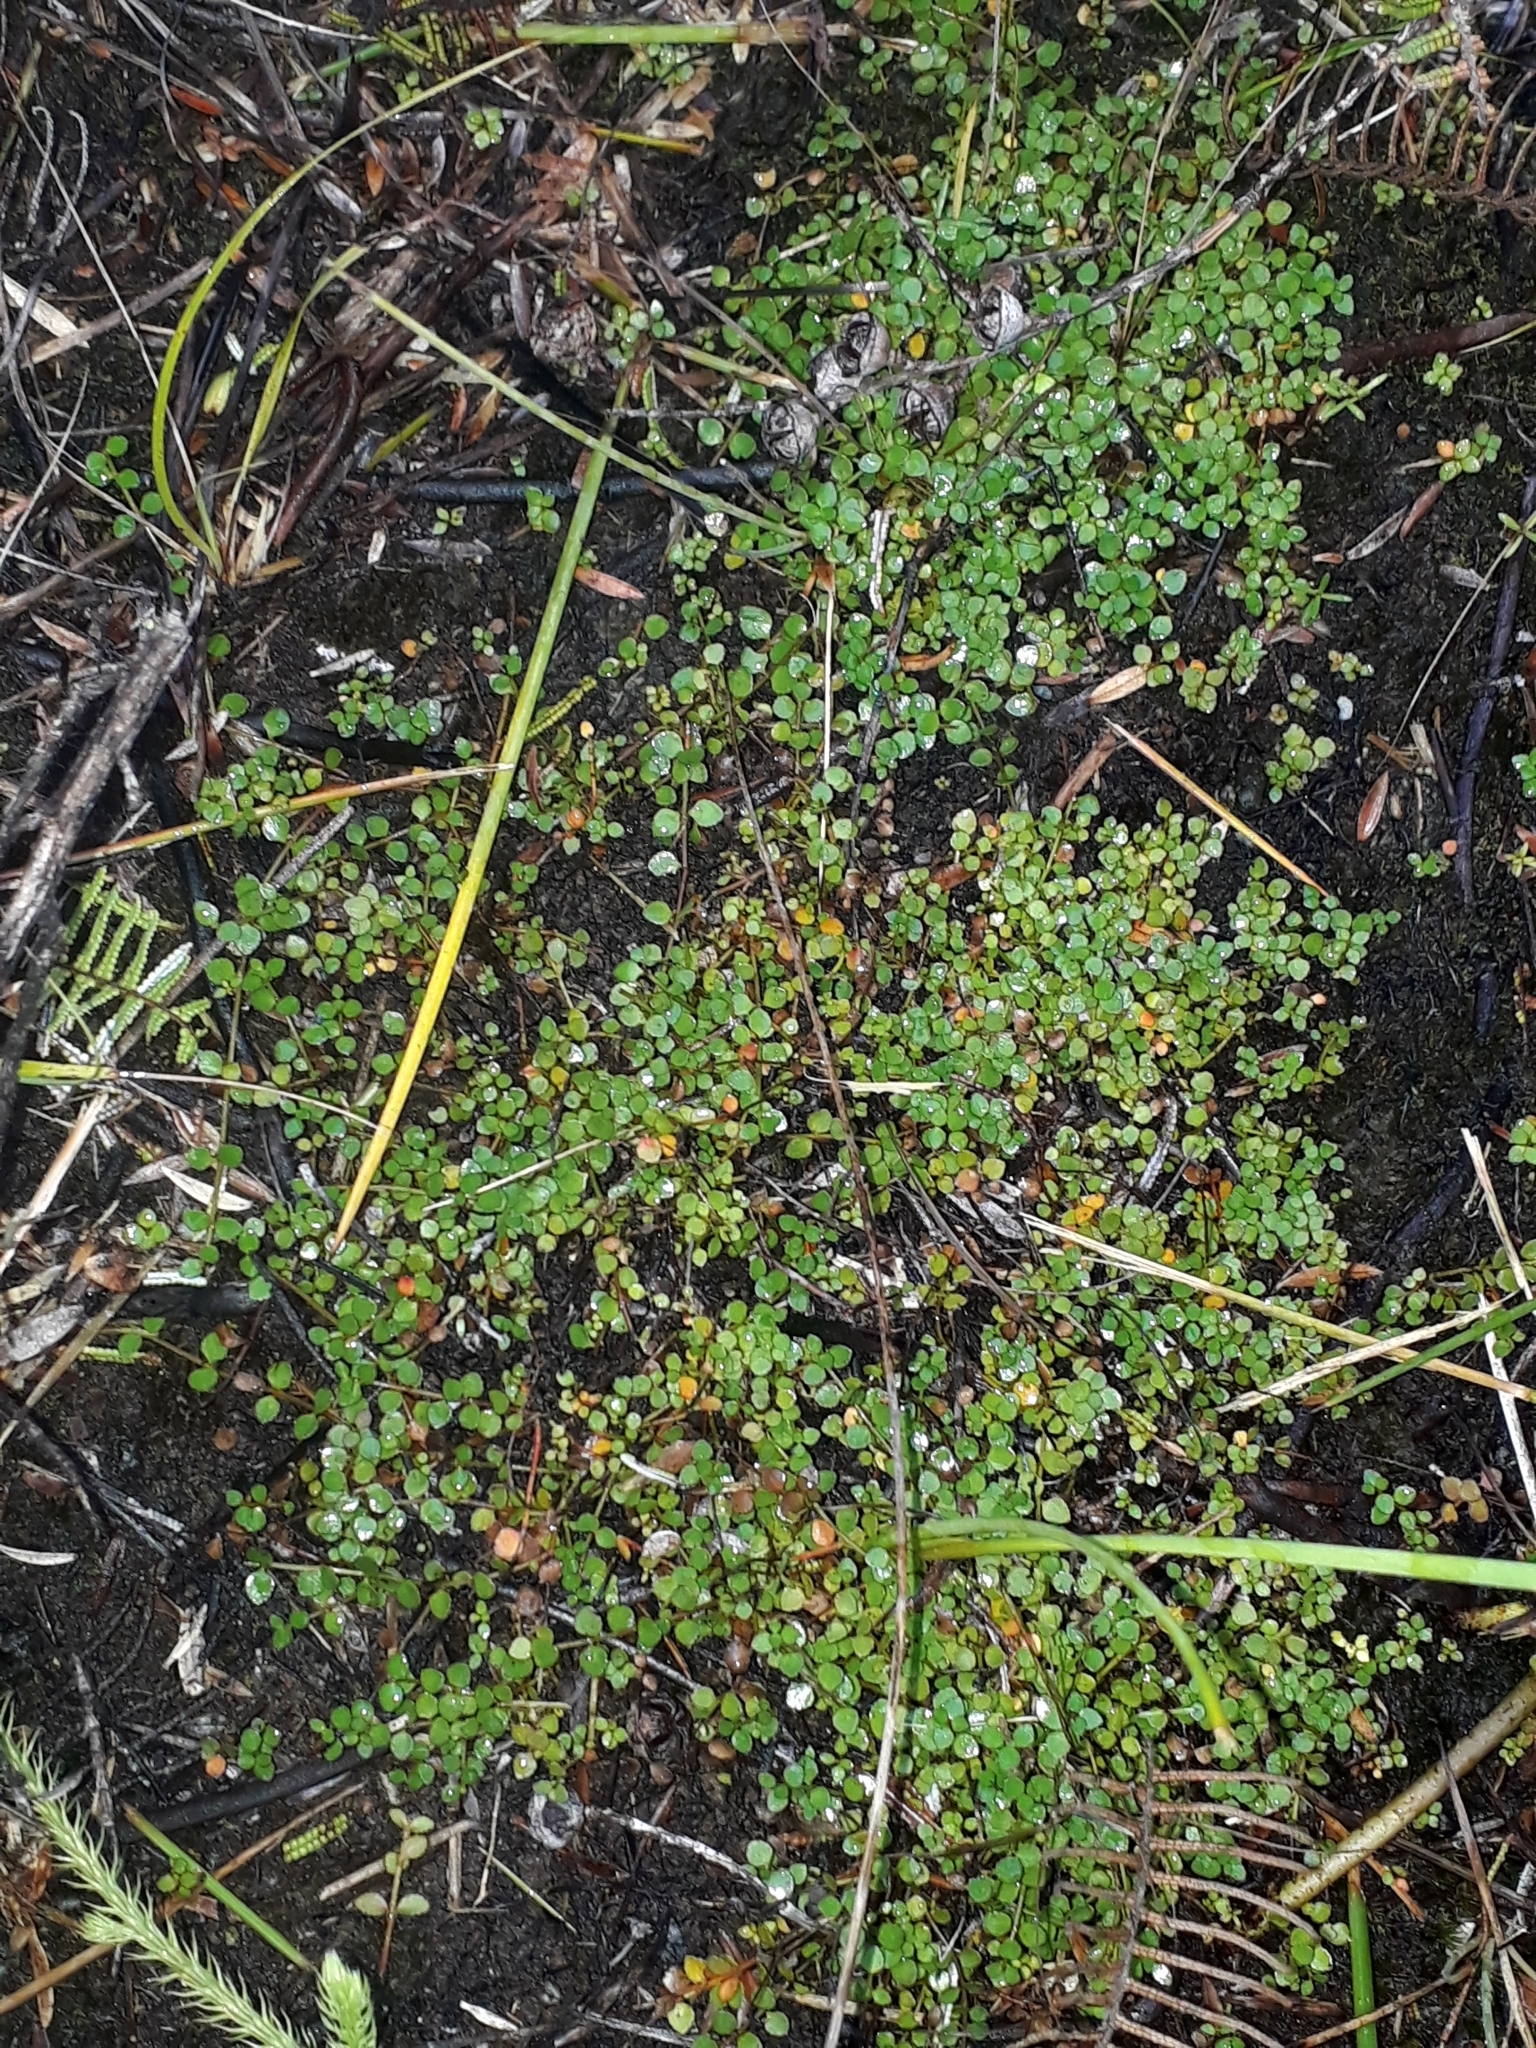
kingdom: Plantae
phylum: Tracheophyta
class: Magnoliopsida
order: Saxifragales
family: Haloragaceae
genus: Gonocarpus
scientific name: Gonocarpus micranthus
